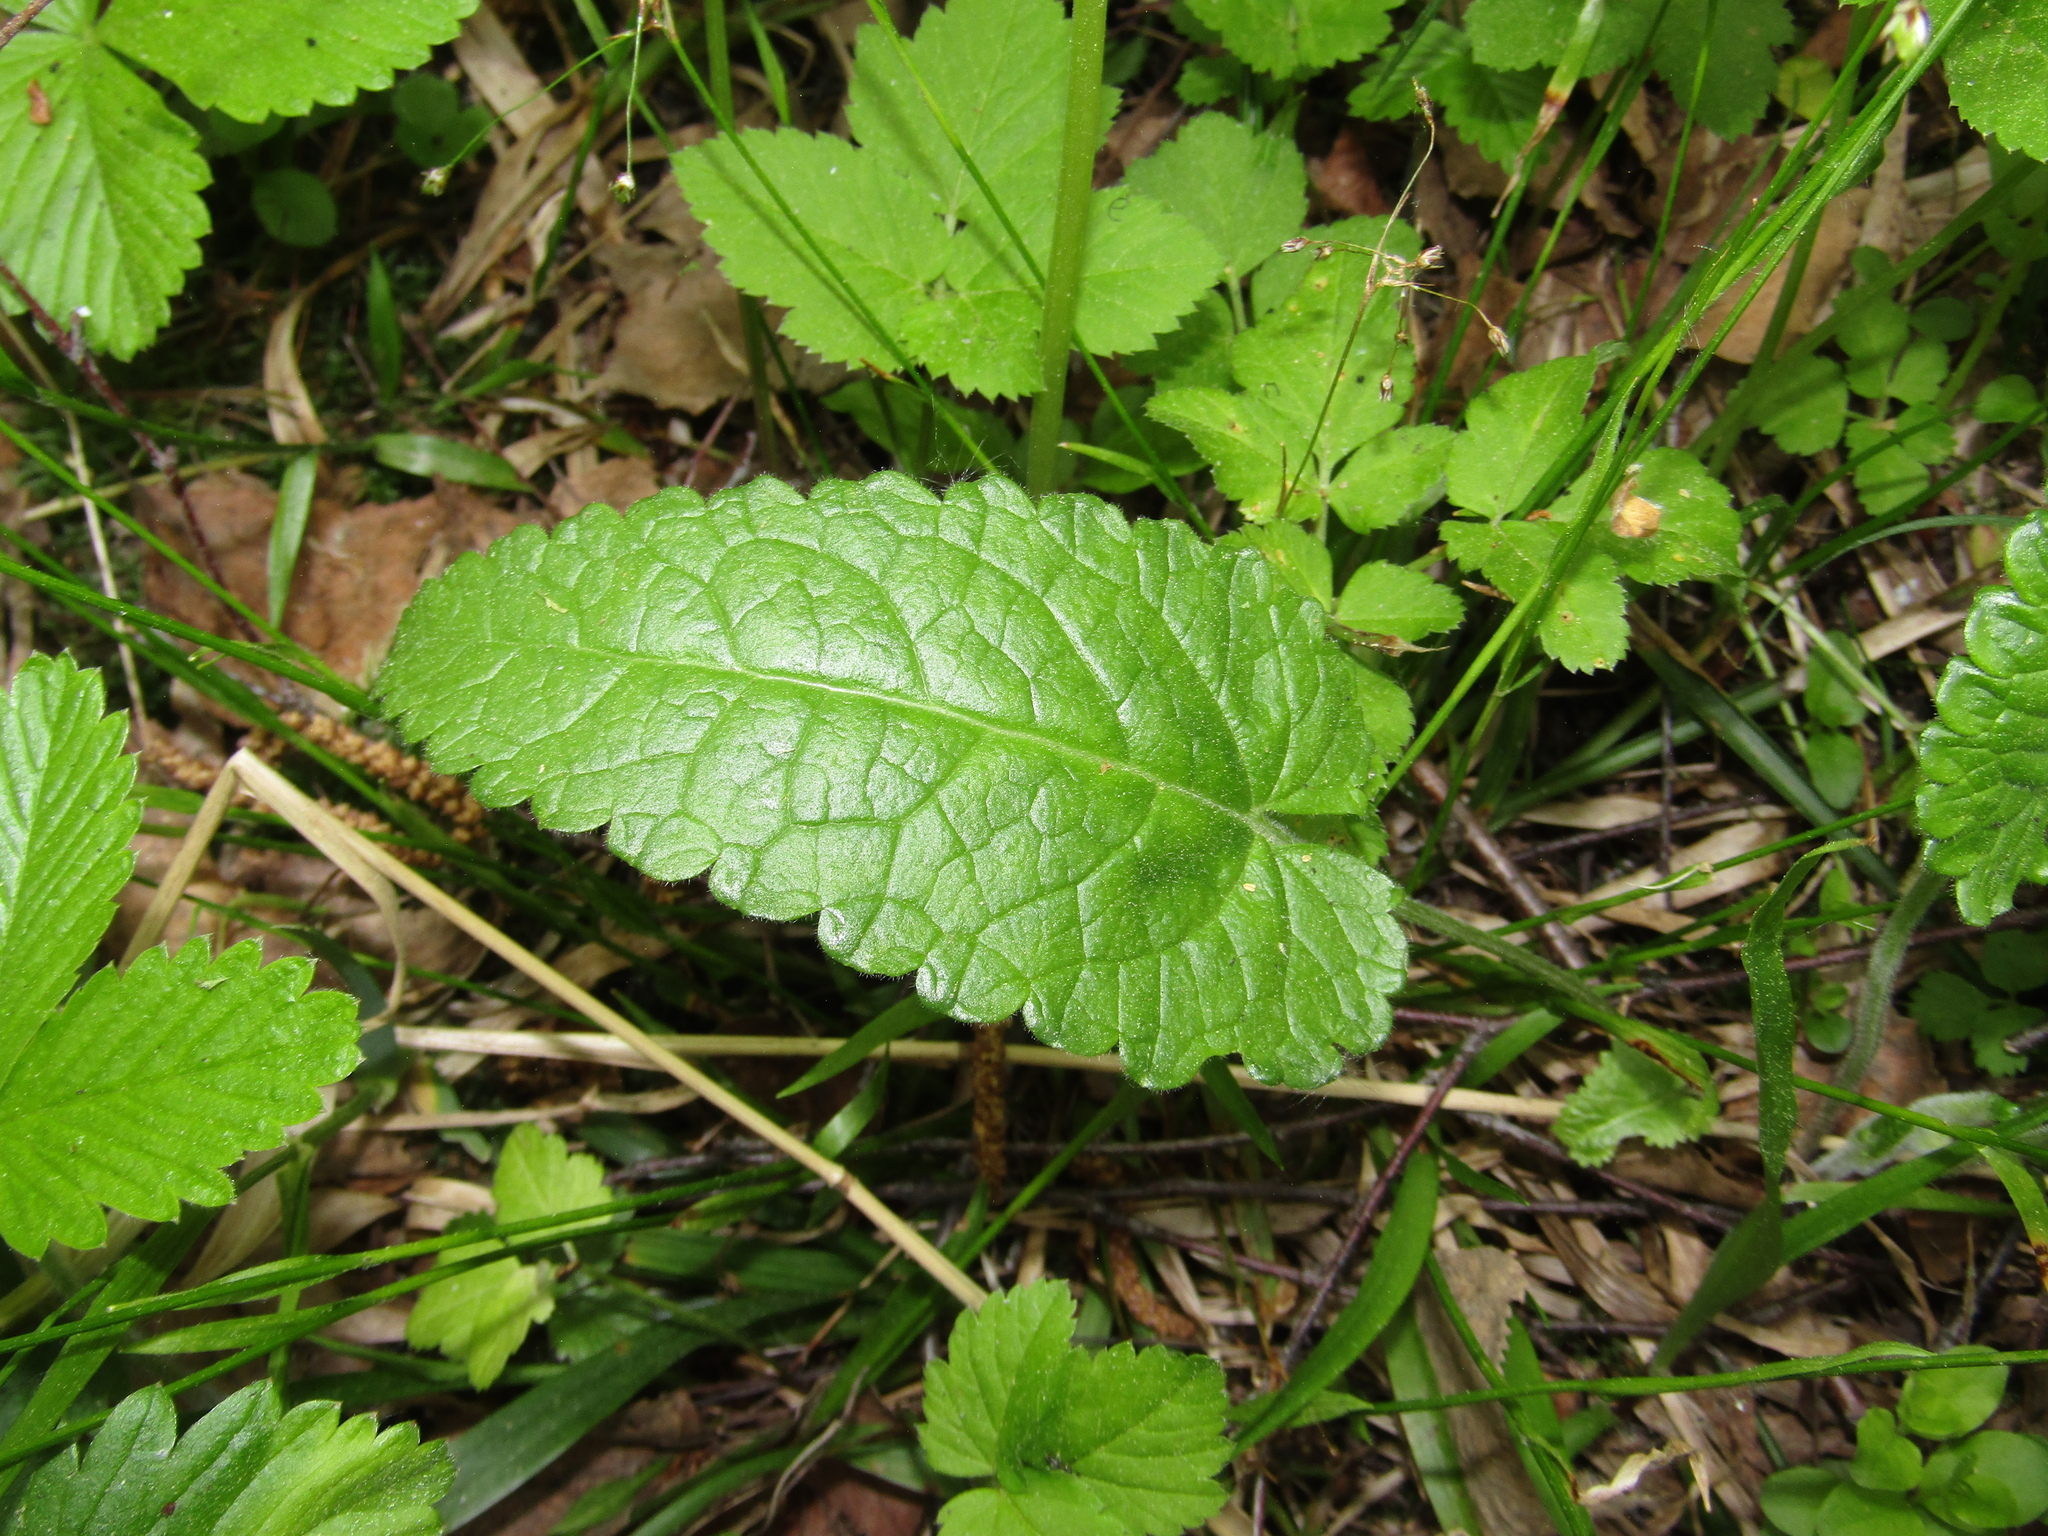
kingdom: Plantae
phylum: Tracheophyta
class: Magnoliopsida
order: Lamiales
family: Lamiaceae
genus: Betonica
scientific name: Betonica officinalis
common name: Bishop's-wort
